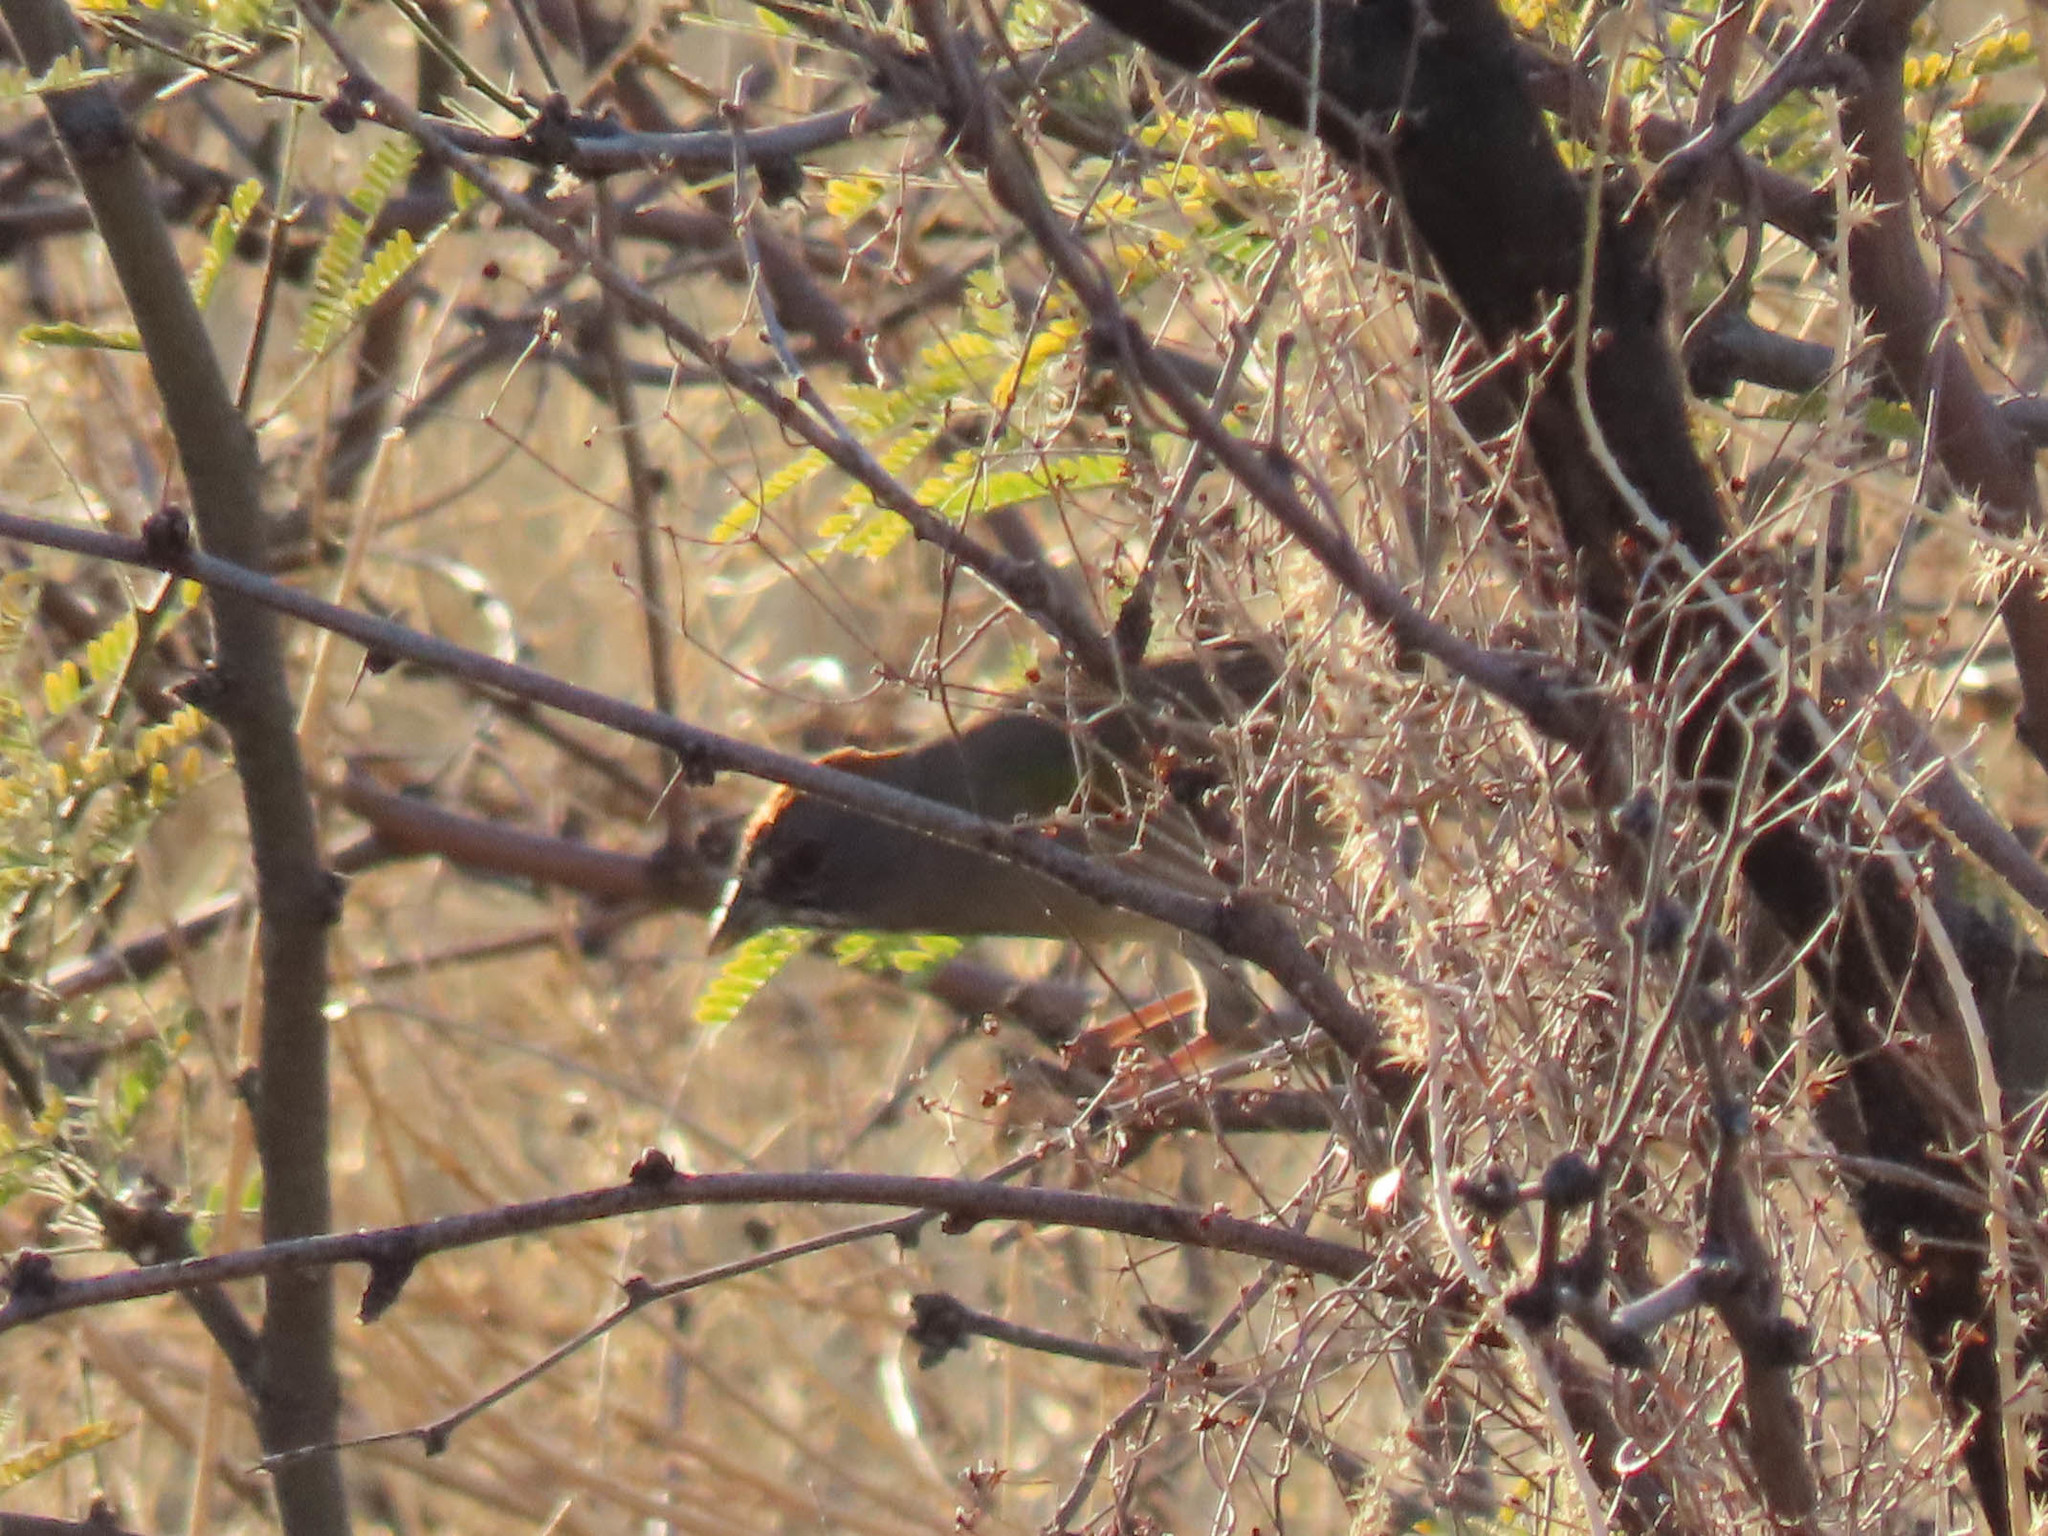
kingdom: Animalia
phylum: Chordata
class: Aves
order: Passeriformes
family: Passerellidae
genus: Pipilo
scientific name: Pipilo chlorurus
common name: Green-tailed towhee
